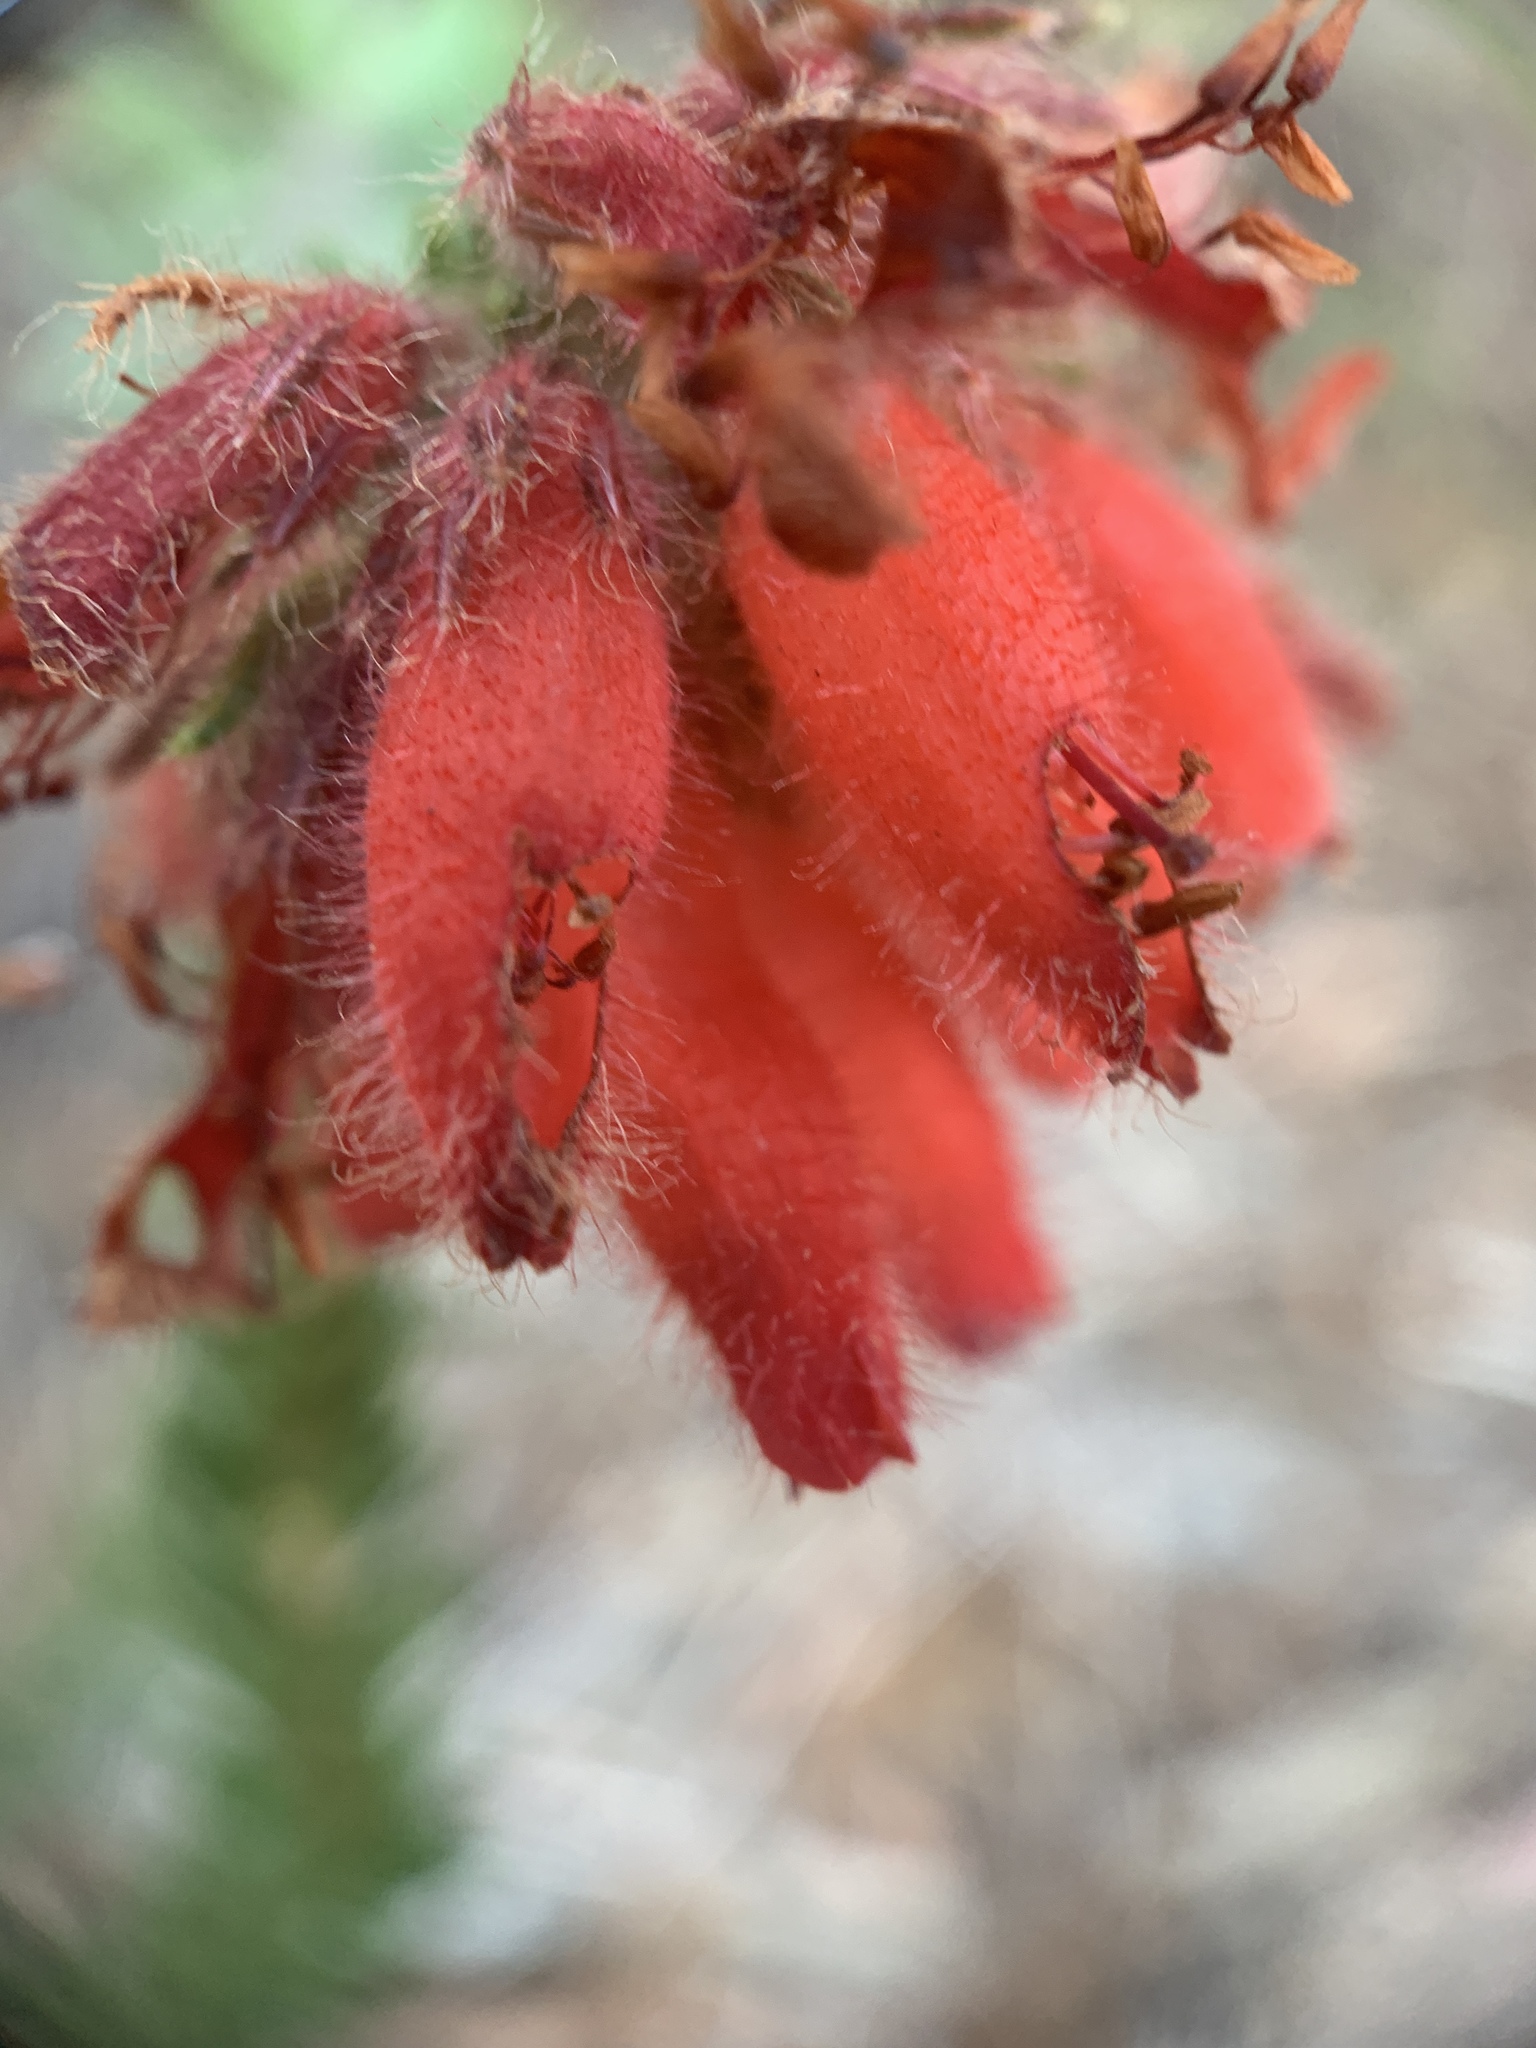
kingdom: Plantae
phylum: Tracheophyta
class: Magnoliopsida
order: Ericales
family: Ericaceae
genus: Erica
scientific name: Erica cerinthoides
